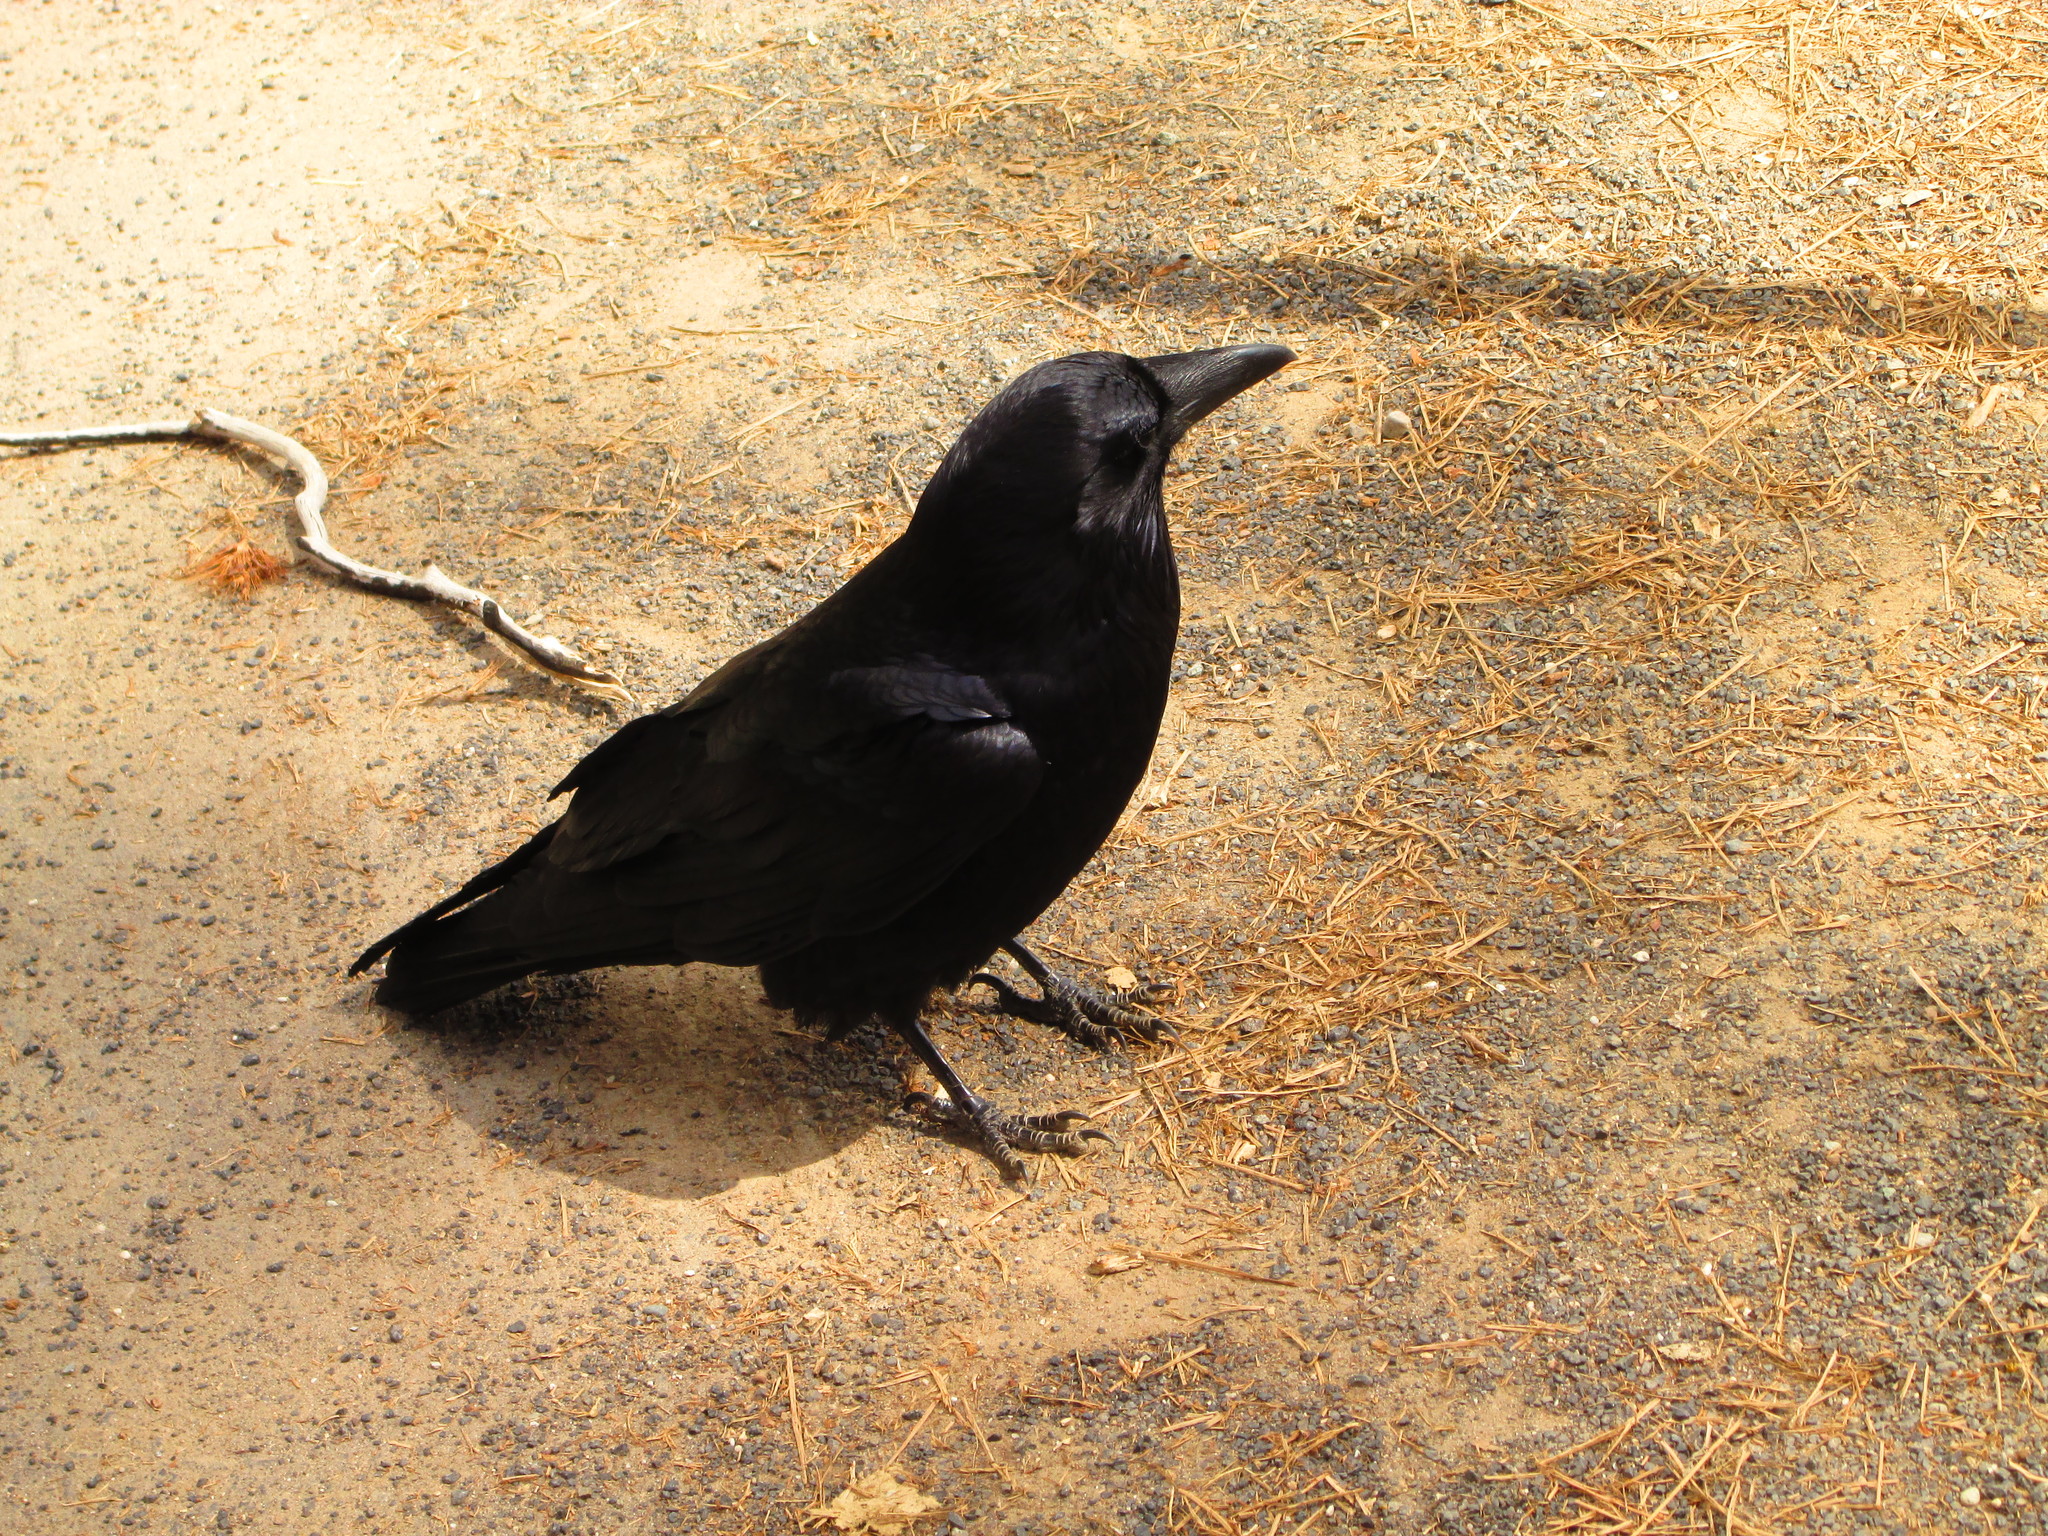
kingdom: Animalia
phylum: Chordata
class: Aves
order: Passeriformes
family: Corvidae
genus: Corvus
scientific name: Corvus corax
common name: Common raven
